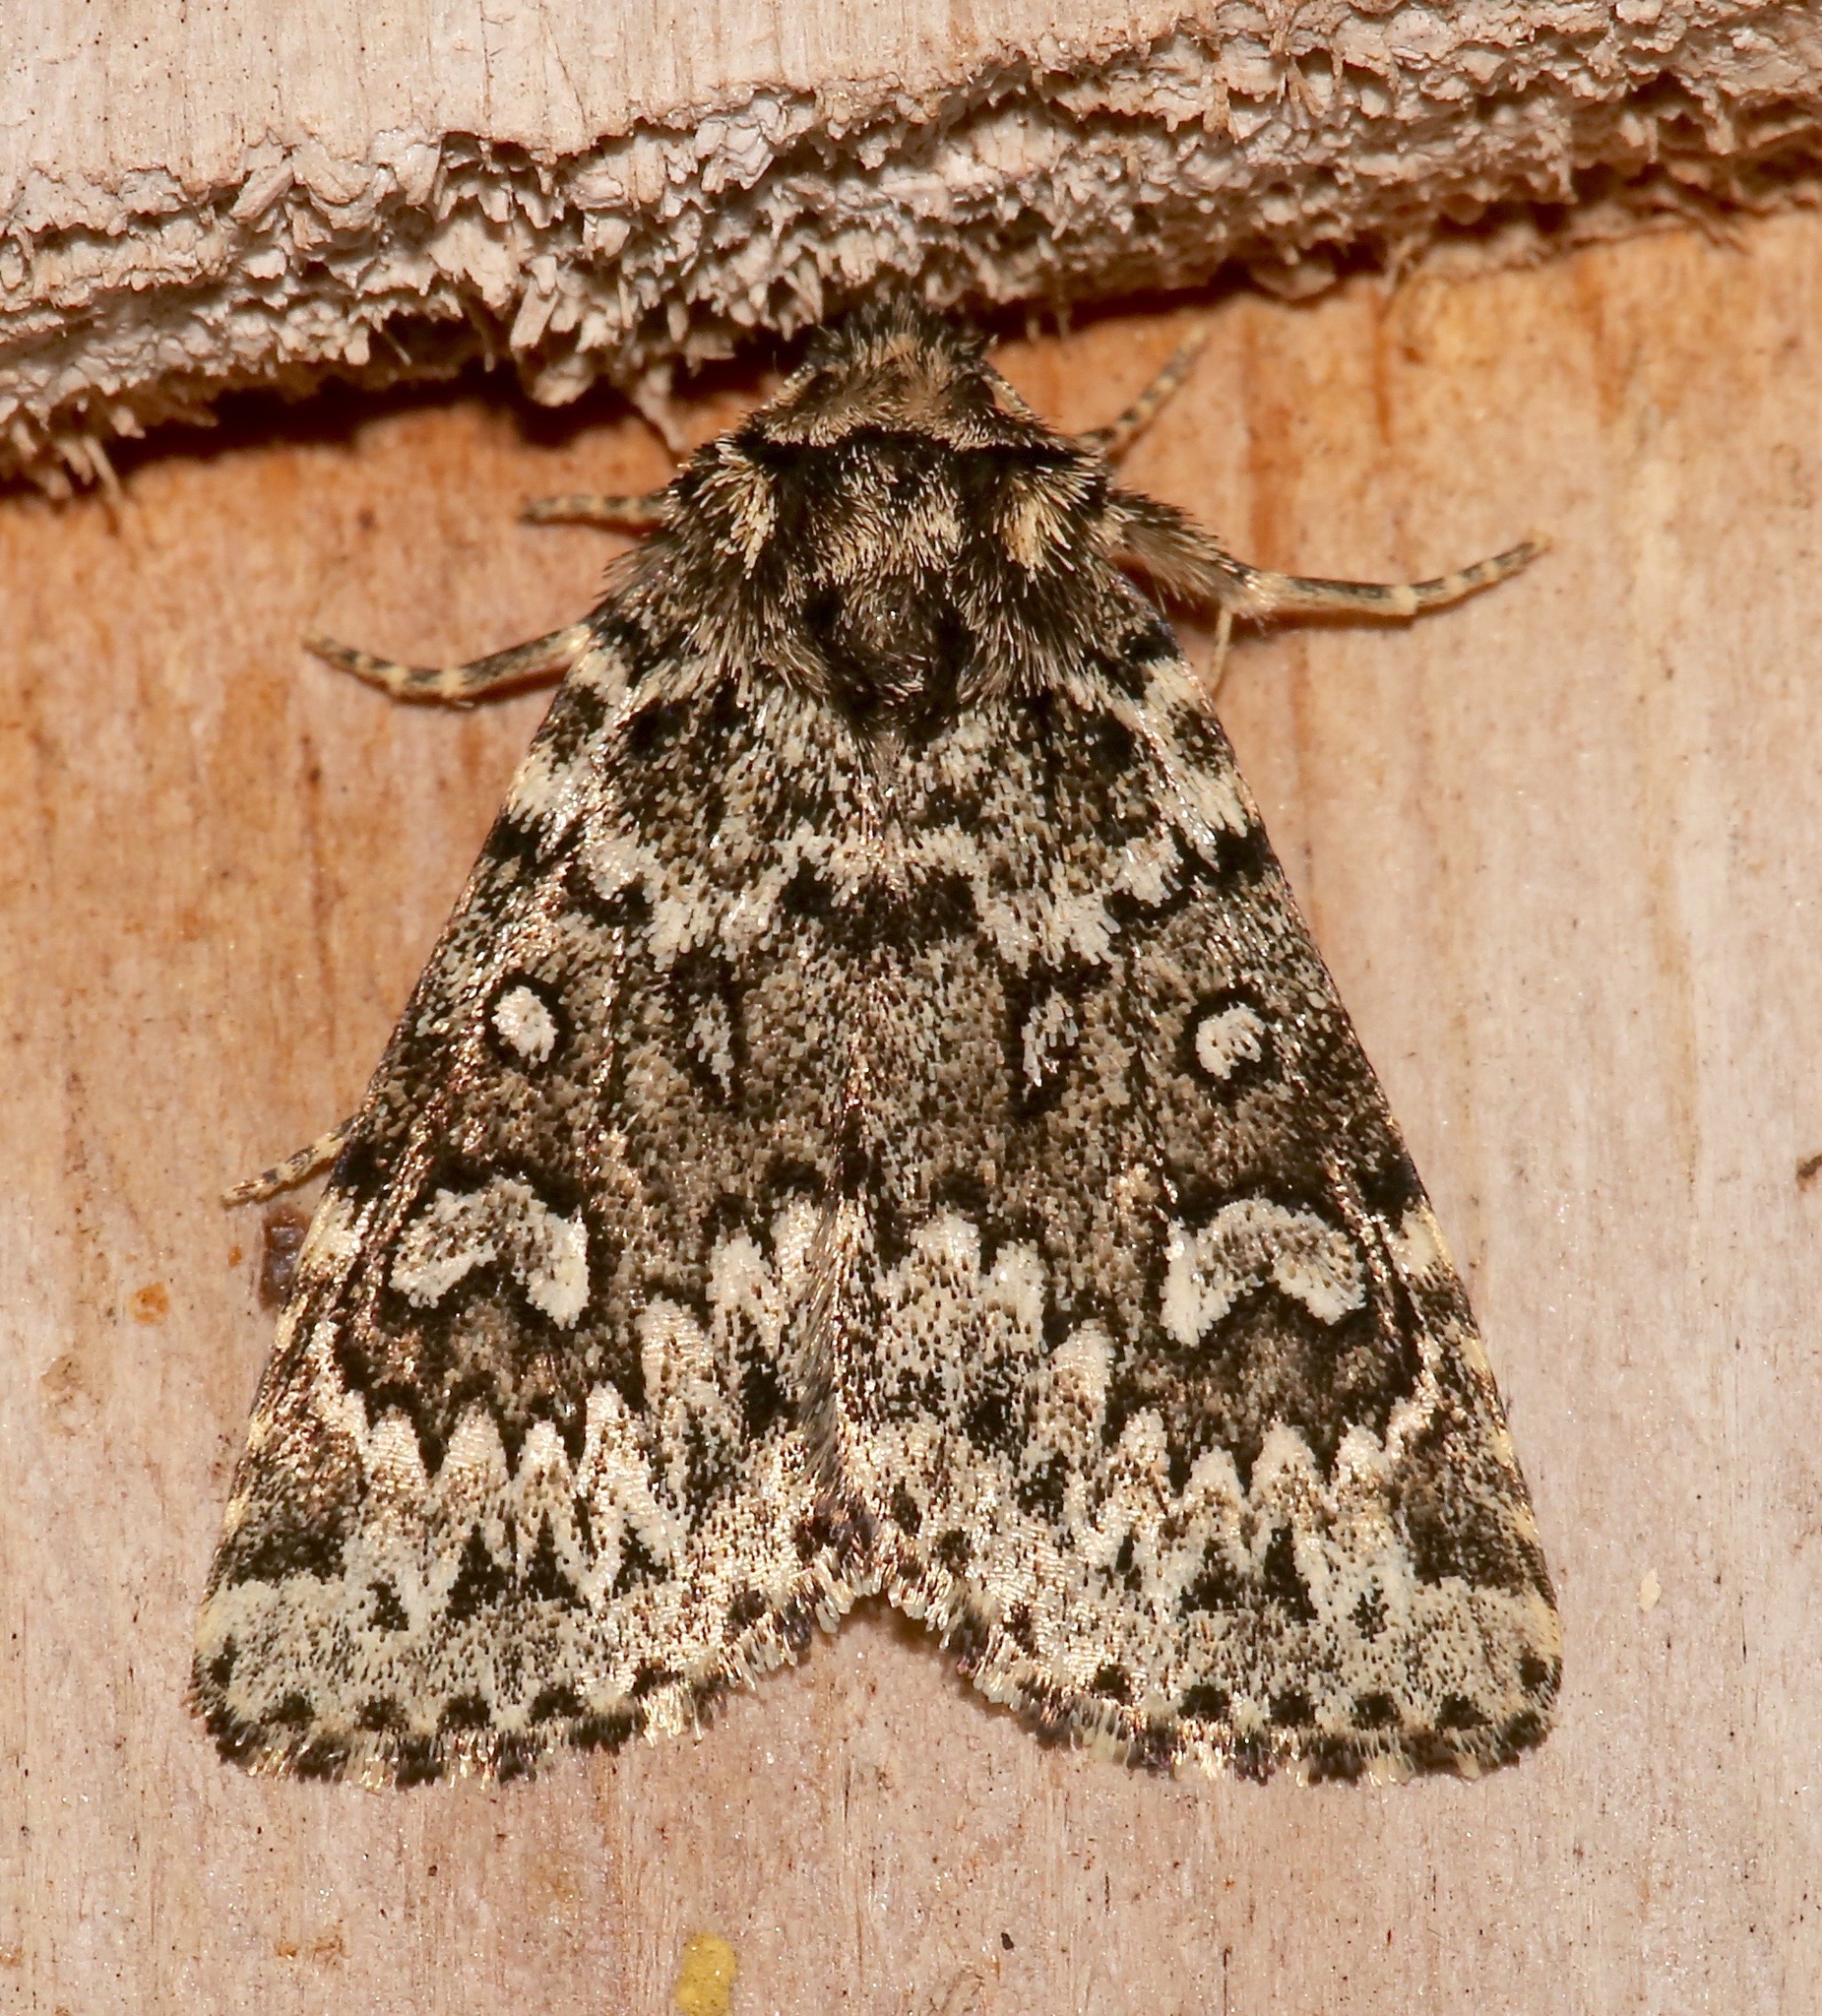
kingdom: Animalia
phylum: Arthropoda
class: Insecta
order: Lepidoptera
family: Noctuidae
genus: Xestia
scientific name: Xestia perquiritata
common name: Boomerang dart
